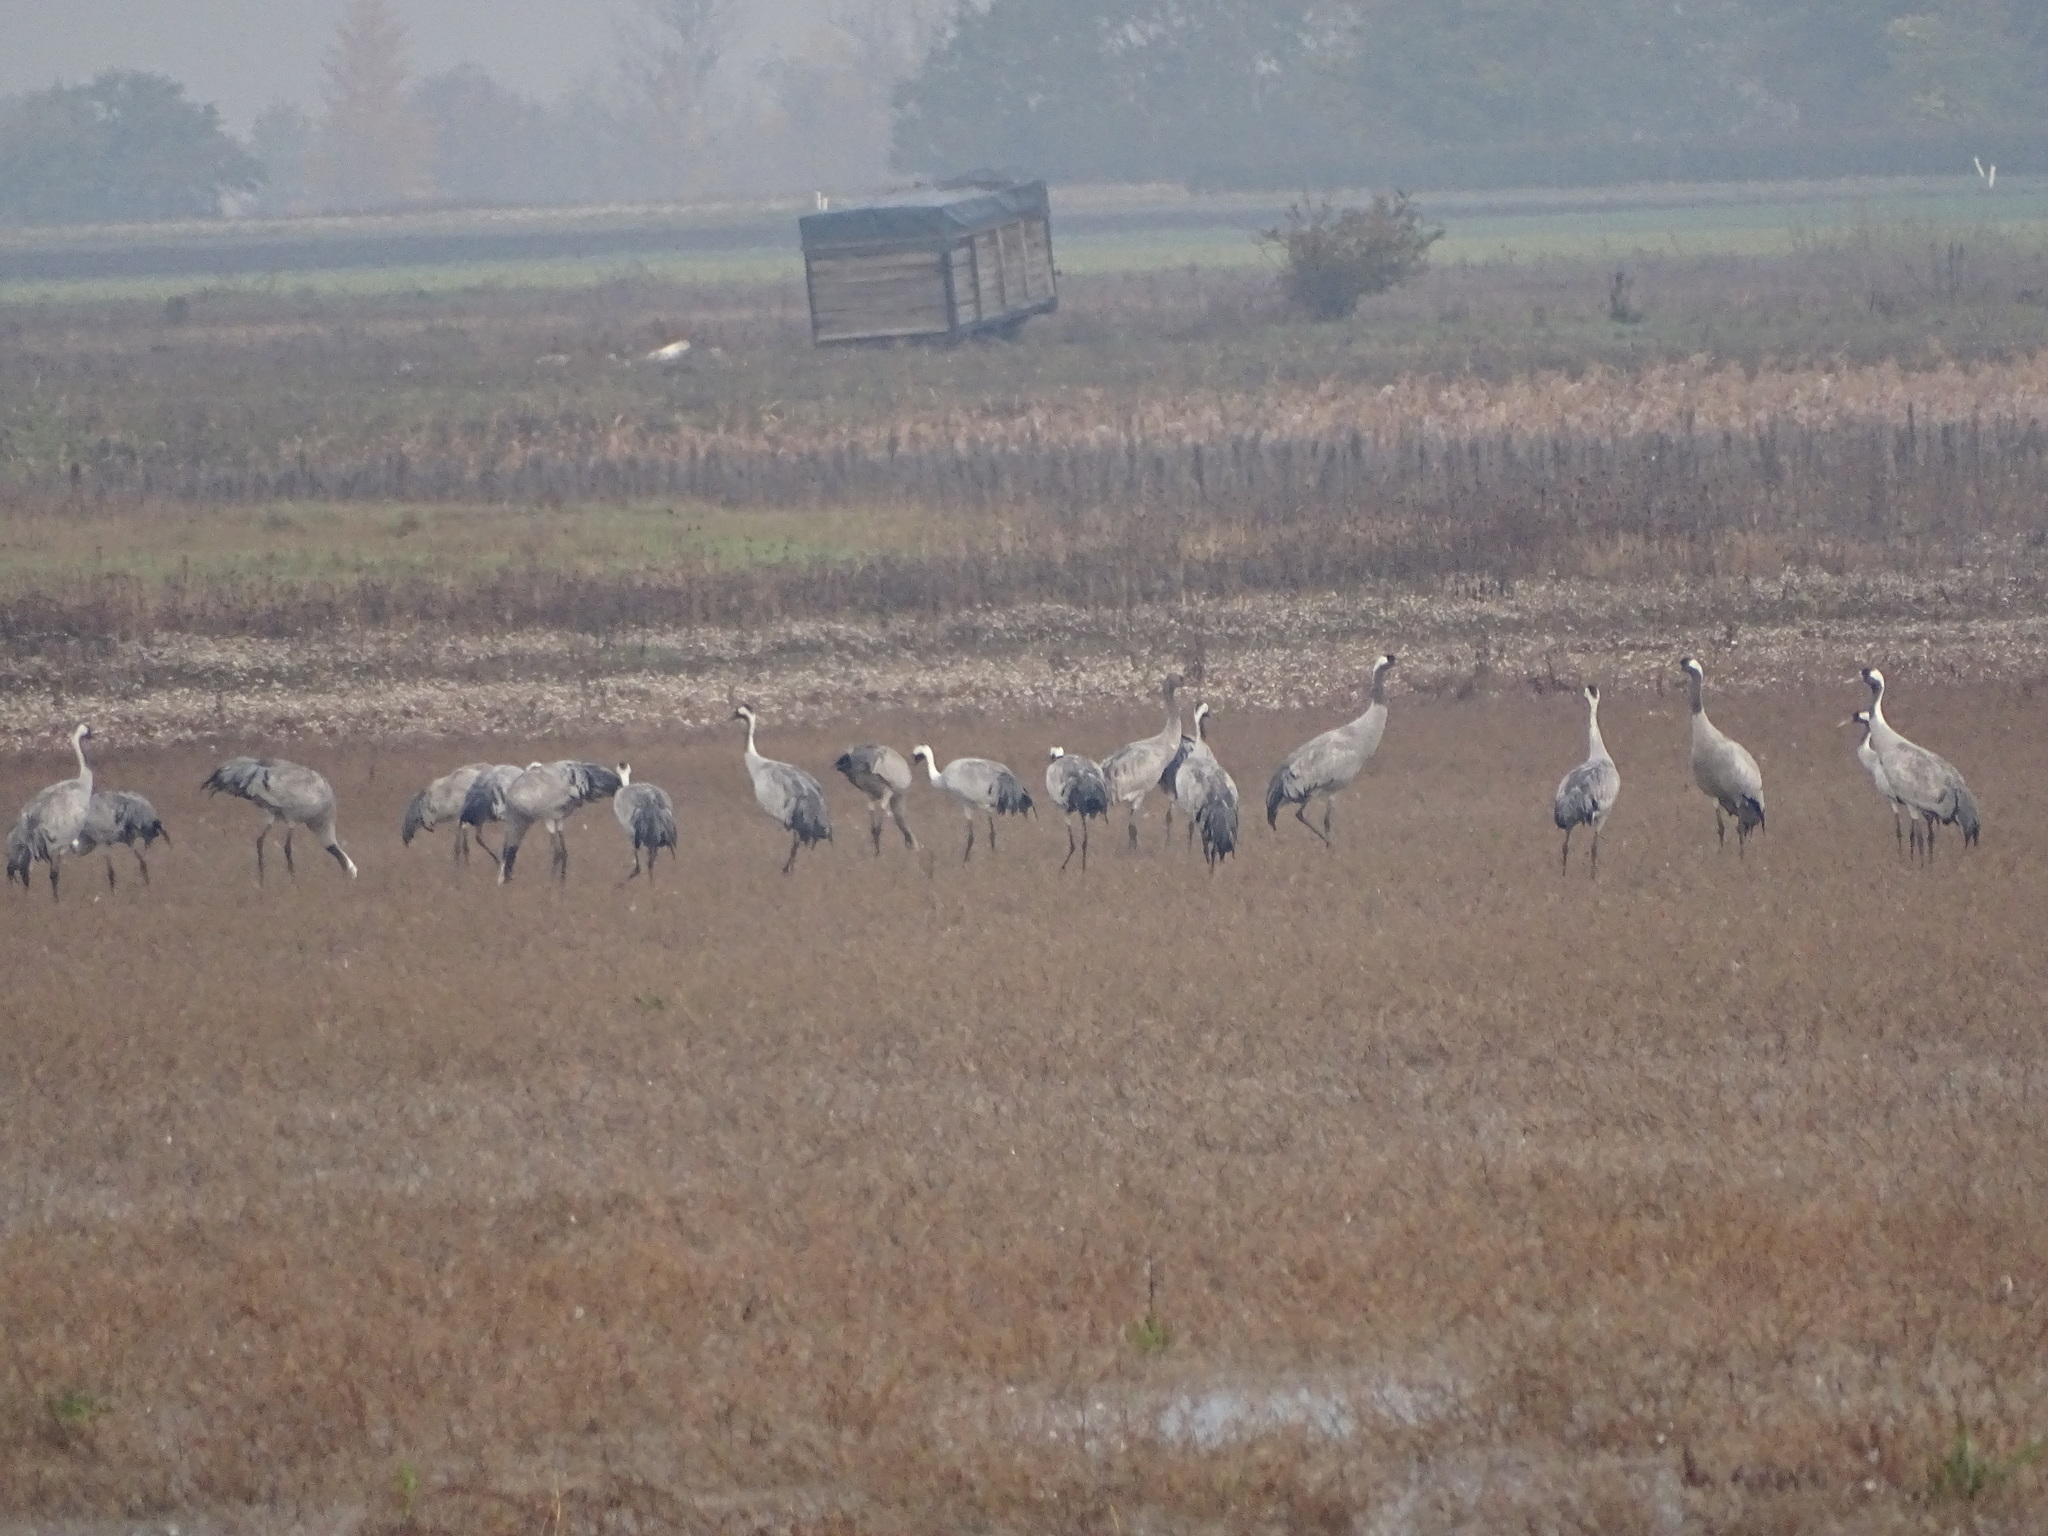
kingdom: Animalia
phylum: Chordata
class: Aves
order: Gruiformes
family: Gruidae
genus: Grus
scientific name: Grus grus
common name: Common crane
